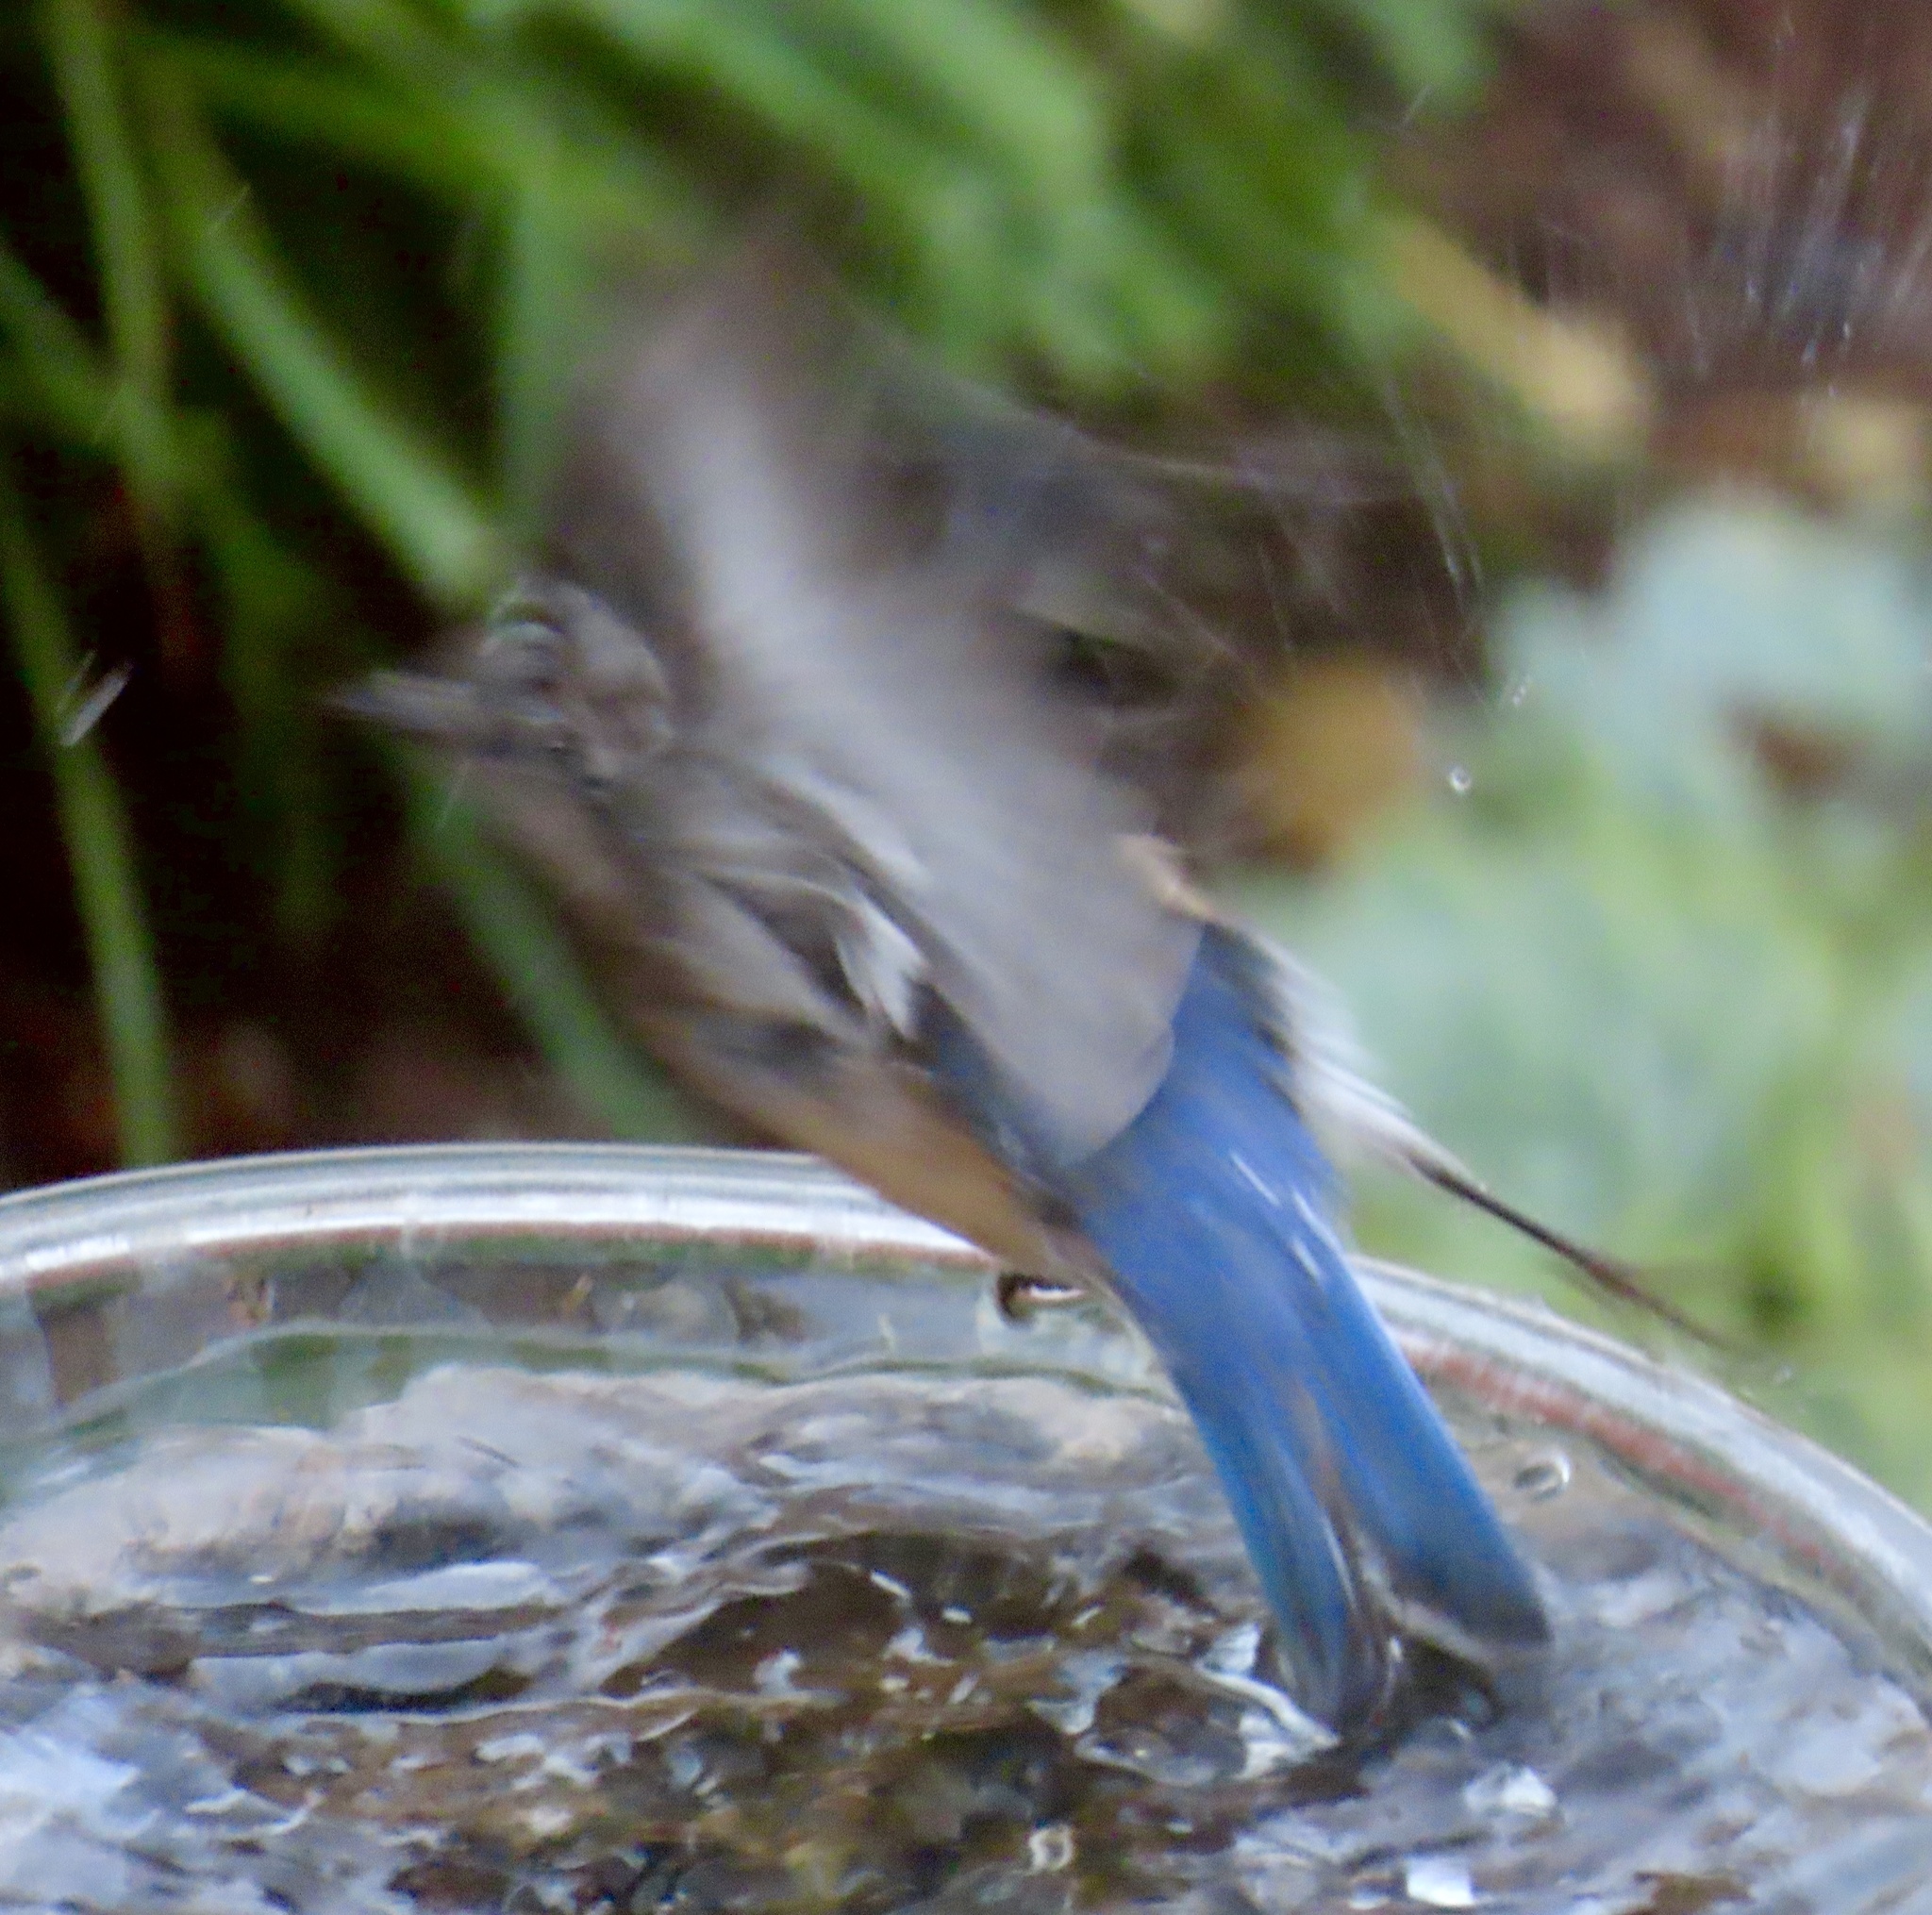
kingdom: Animalia
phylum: Chordata
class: Aves
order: Passeriformes
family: Turdidae
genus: Sialia
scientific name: Sialia mexicana
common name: Western bluebird
